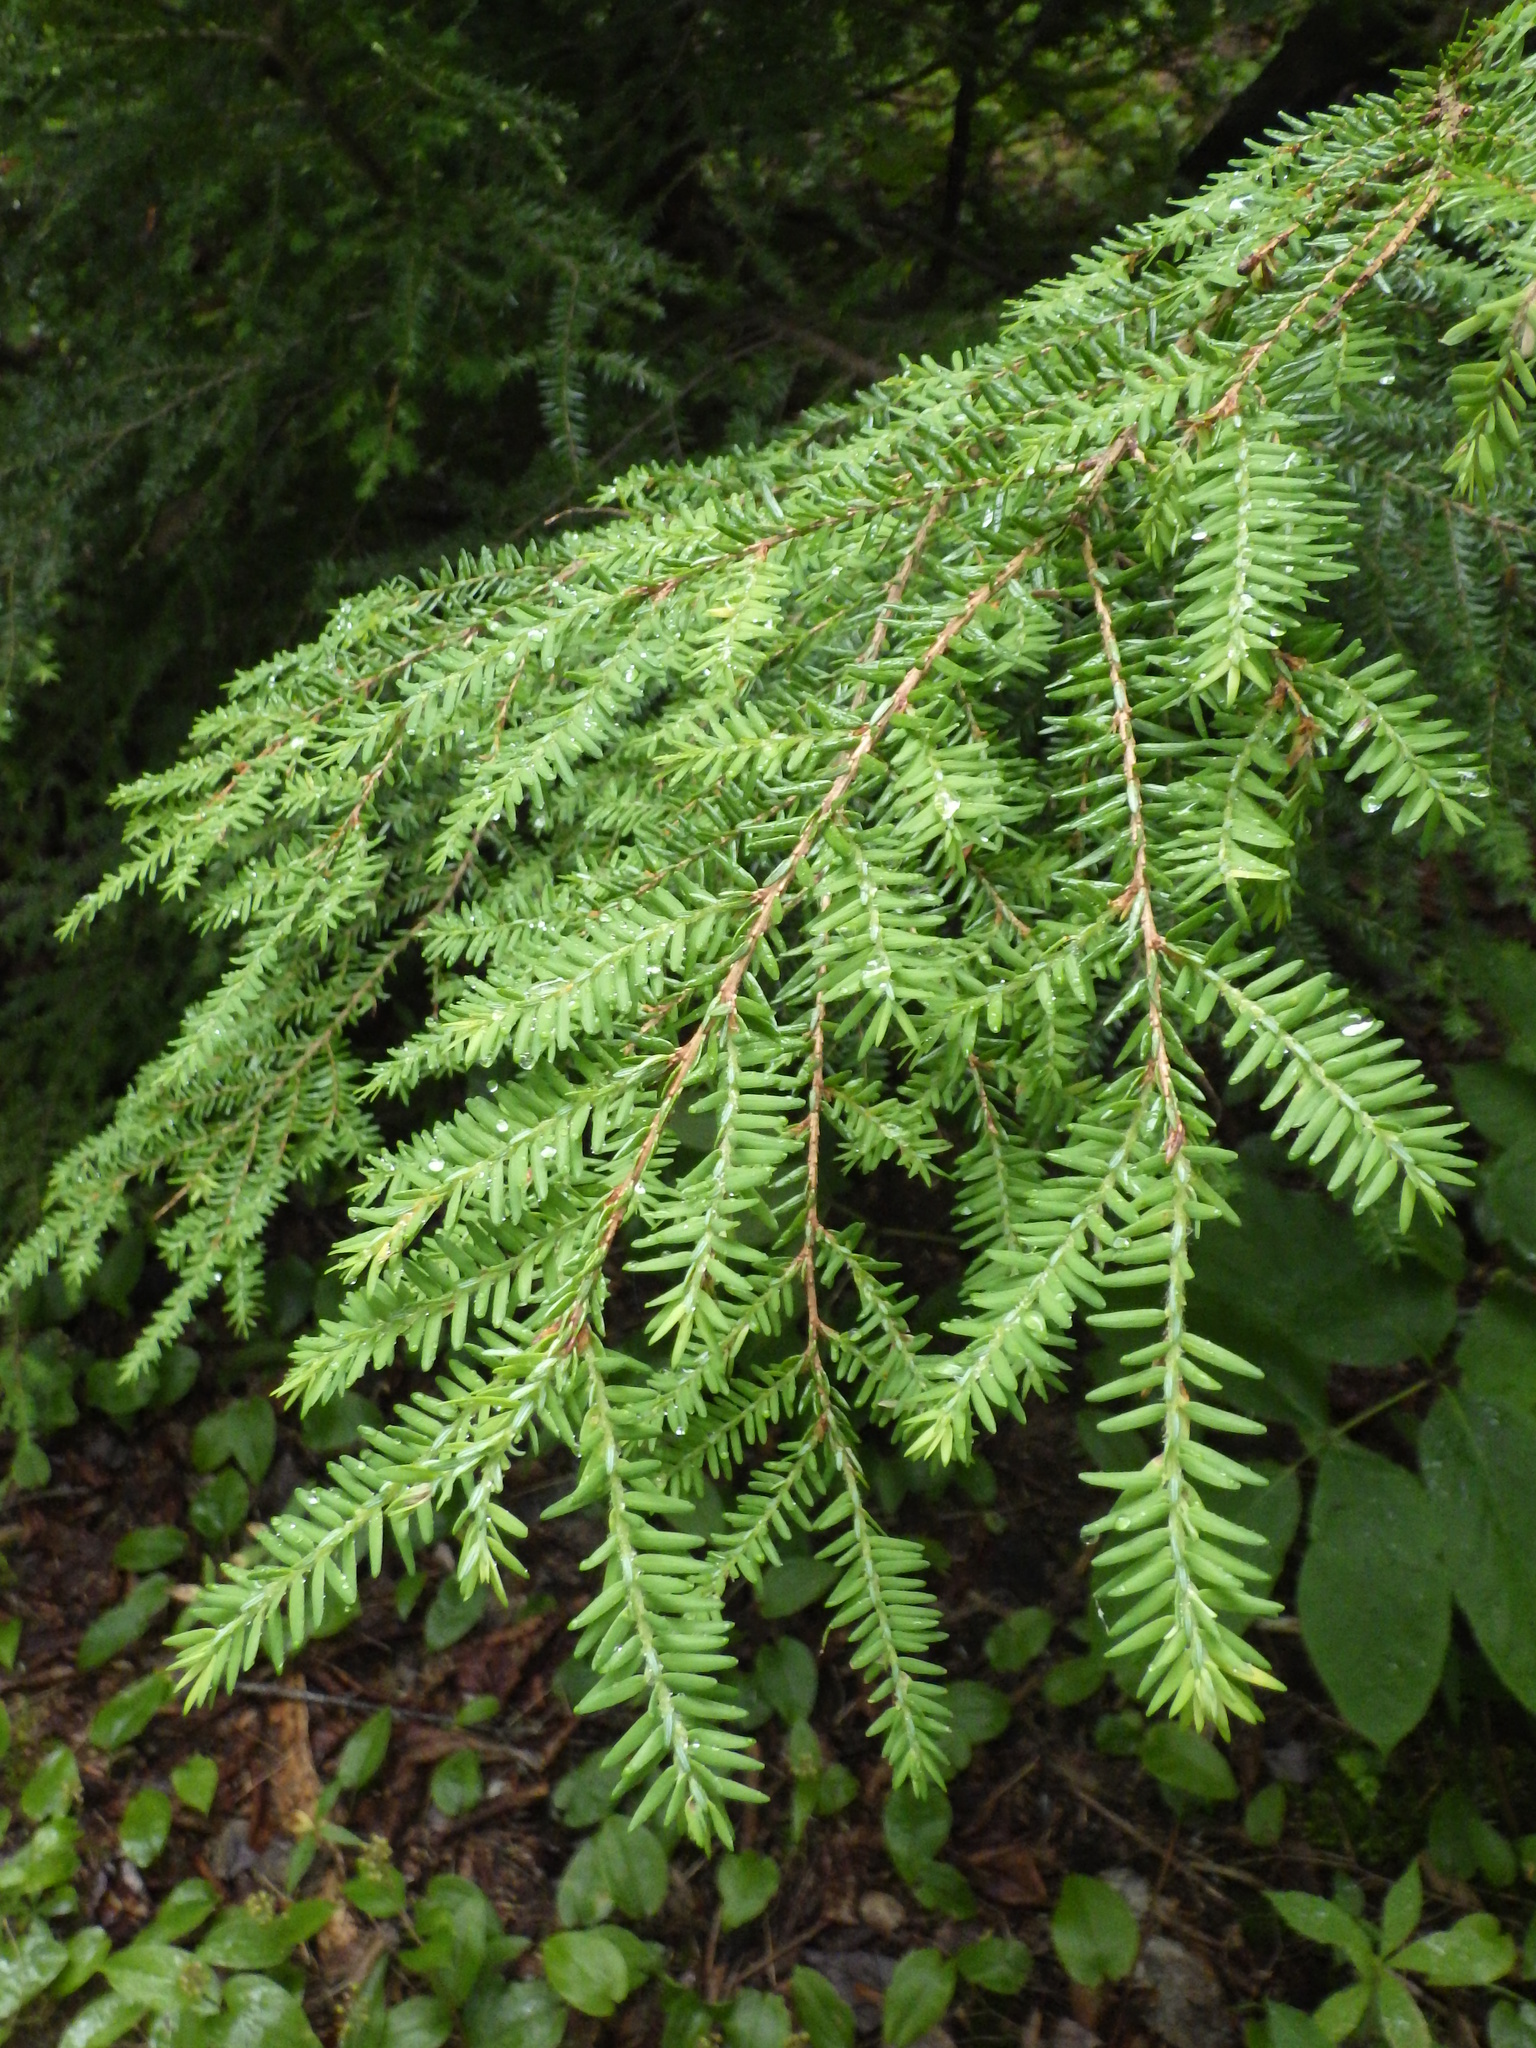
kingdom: Plantae
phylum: Tracheophyta
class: Pinopsida
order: Pinales
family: Pinaceae
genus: Tsuga
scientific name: Tsuga canadensis
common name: Eastern hemlock
